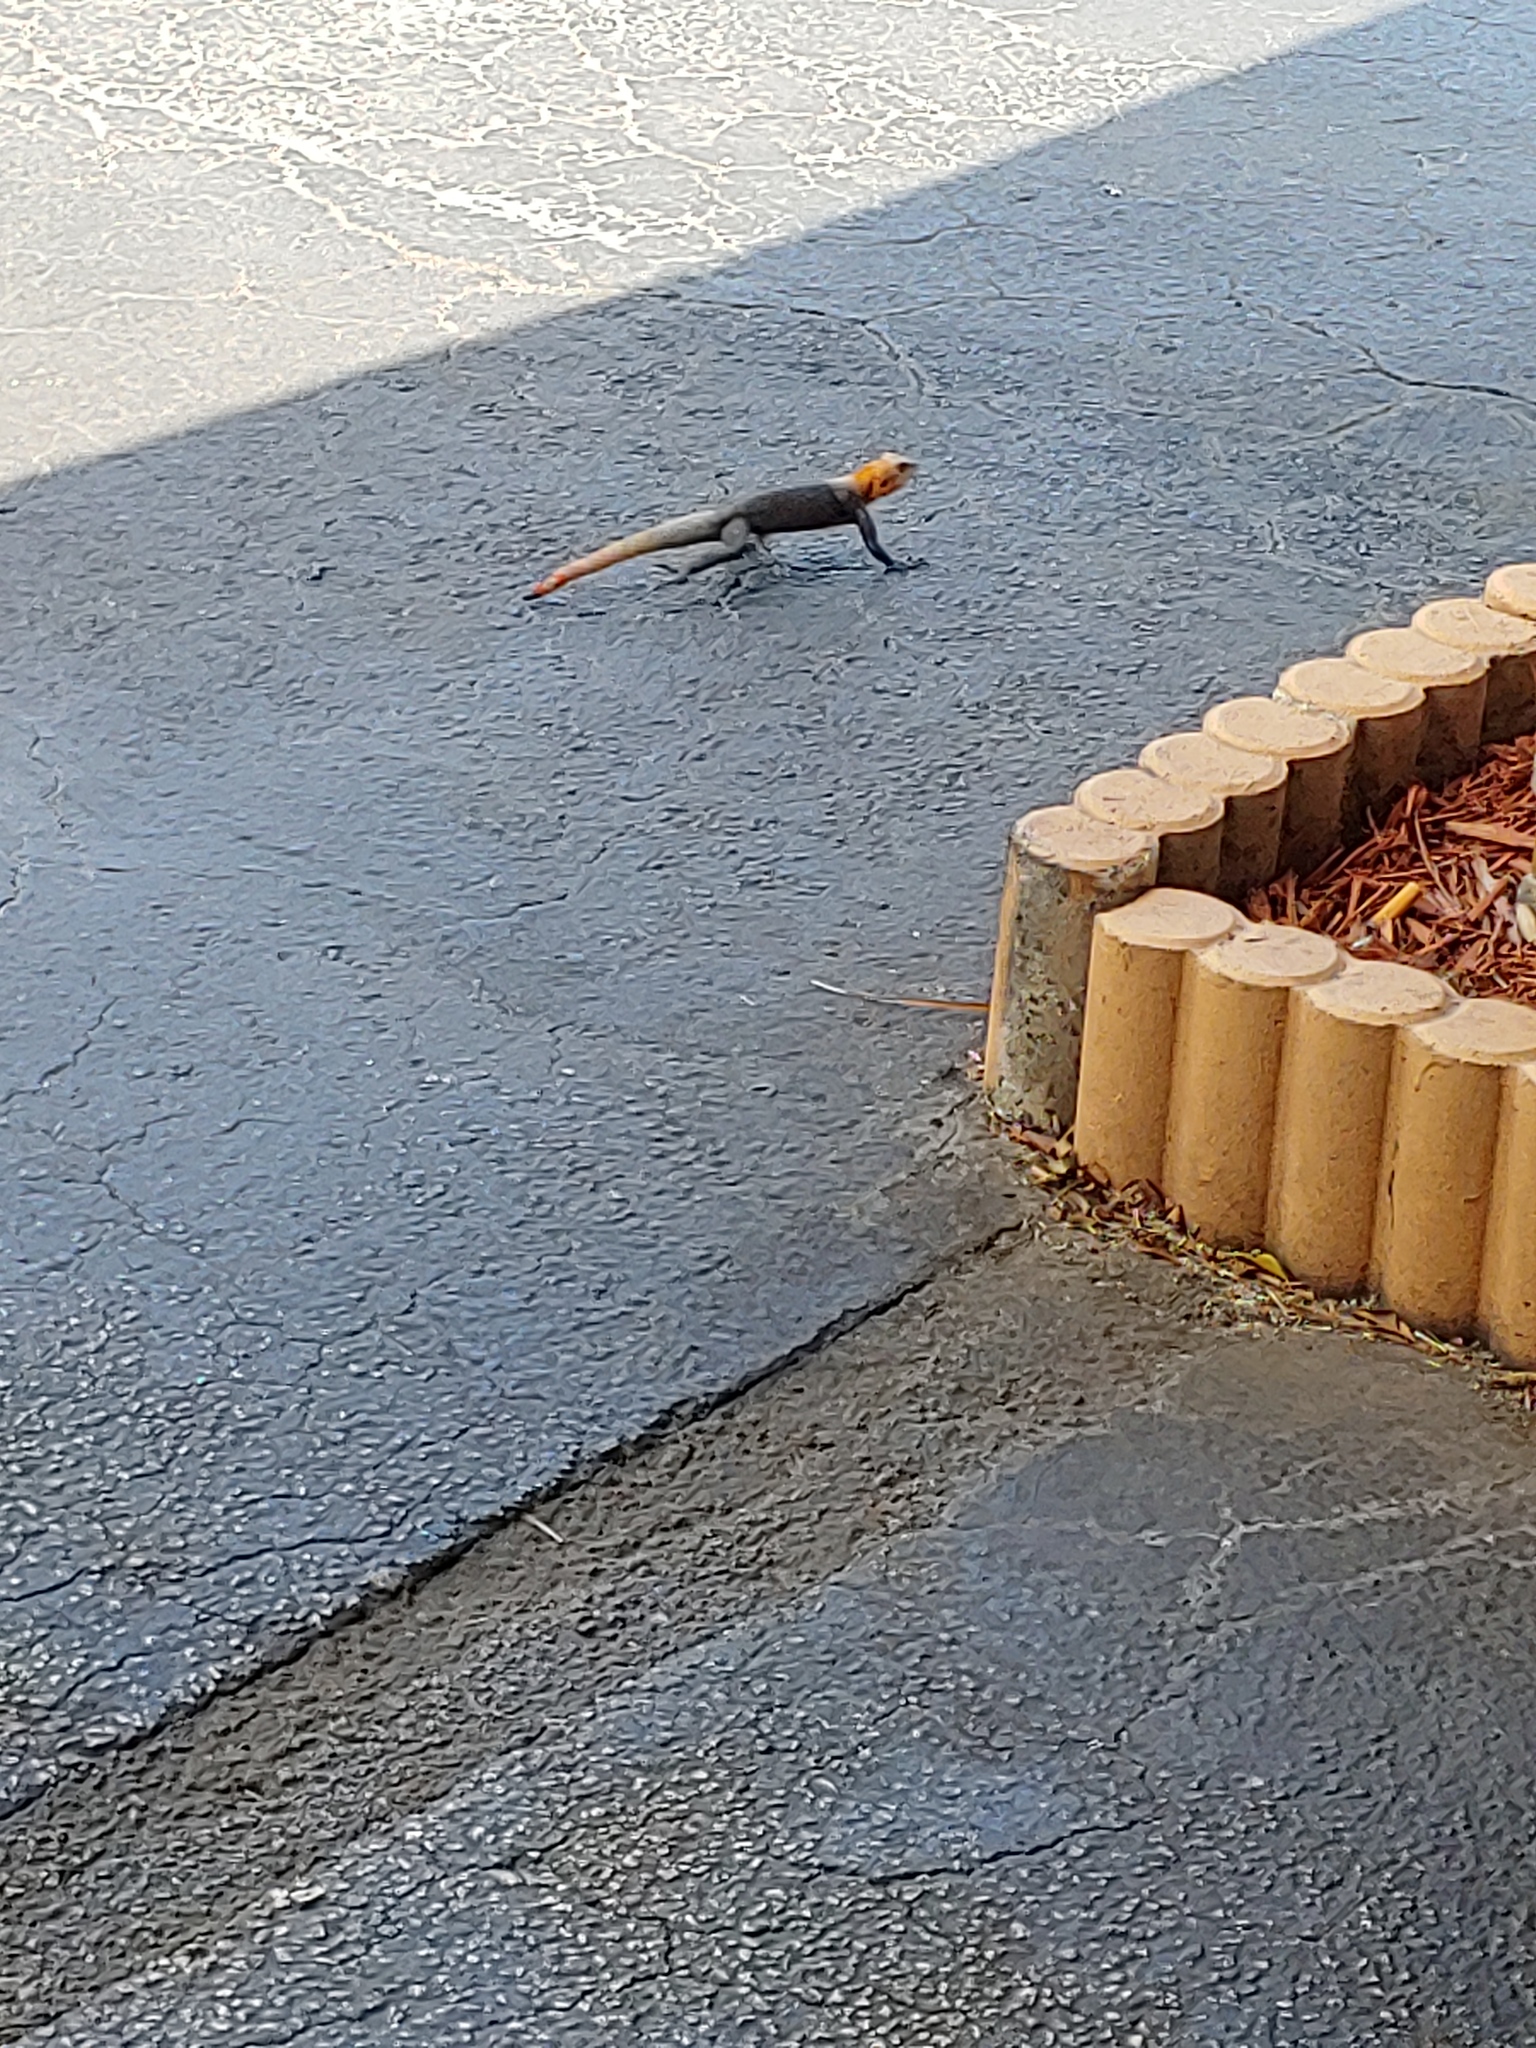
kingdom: Animalia
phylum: Chordata
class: Squamata
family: Agamidae
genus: Agama
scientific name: Agama picticauda
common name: Red-headed agama
